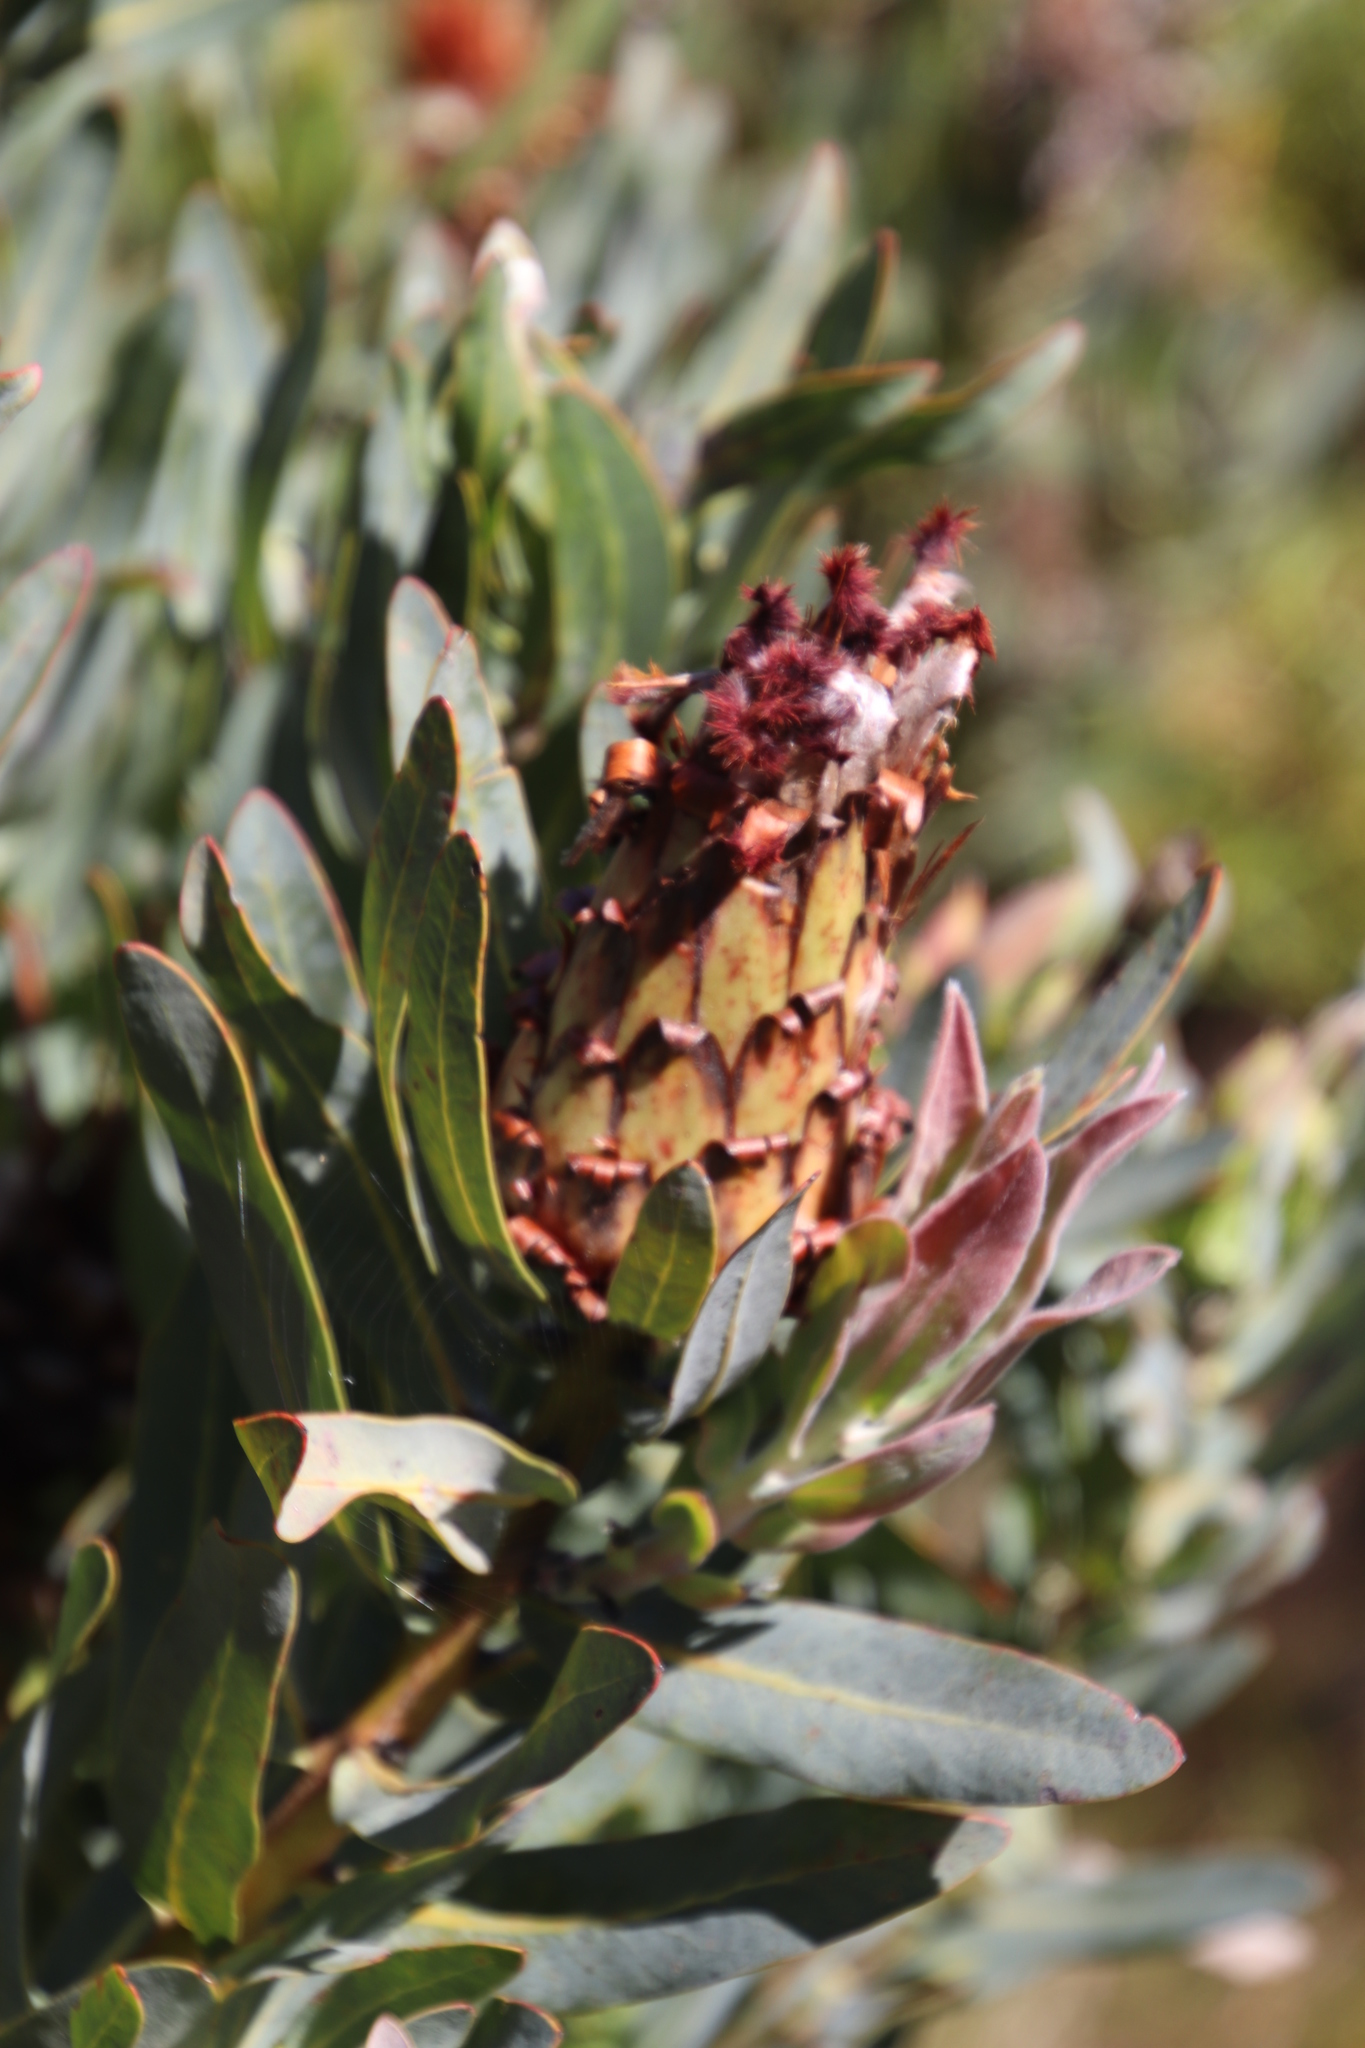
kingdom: Plantae
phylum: Tracheophyta
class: Magnoliopsida
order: Proteales
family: Proteaceae
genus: Protea
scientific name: Protea laurifolia
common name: Grey-leaf sugarbsh
